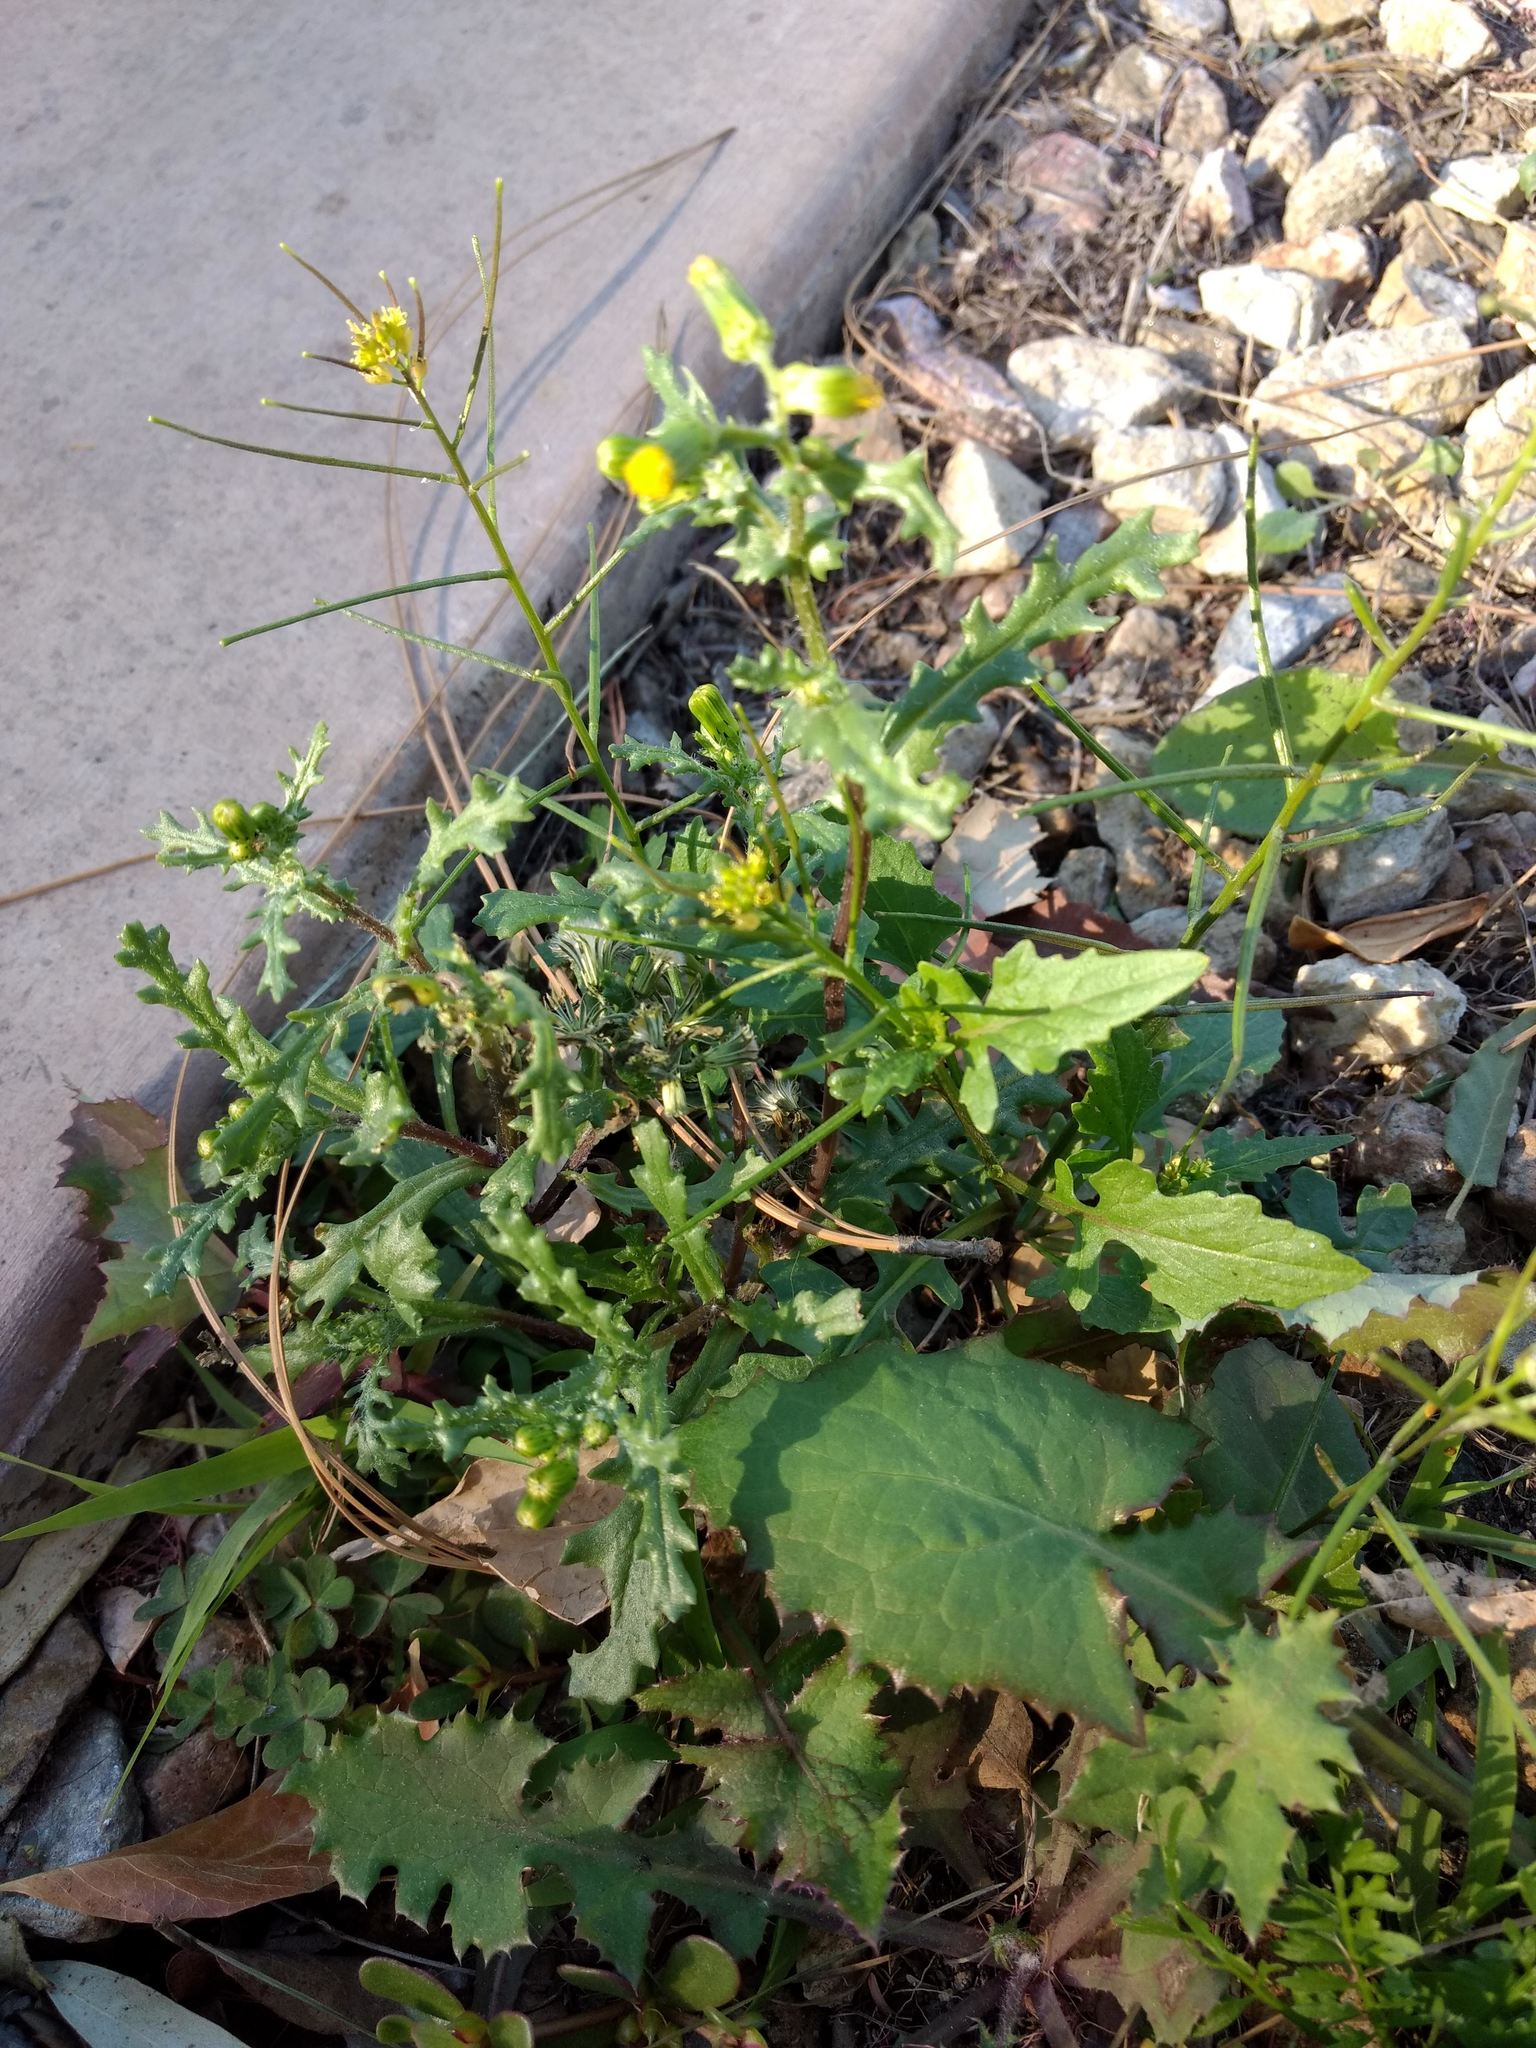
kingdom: Plantae
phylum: Tracheophyta
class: Magnoliopsida
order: Asterales
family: Asteraceae
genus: Senecio
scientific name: Senecio vulgaris
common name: Old-man-in-the-spring
